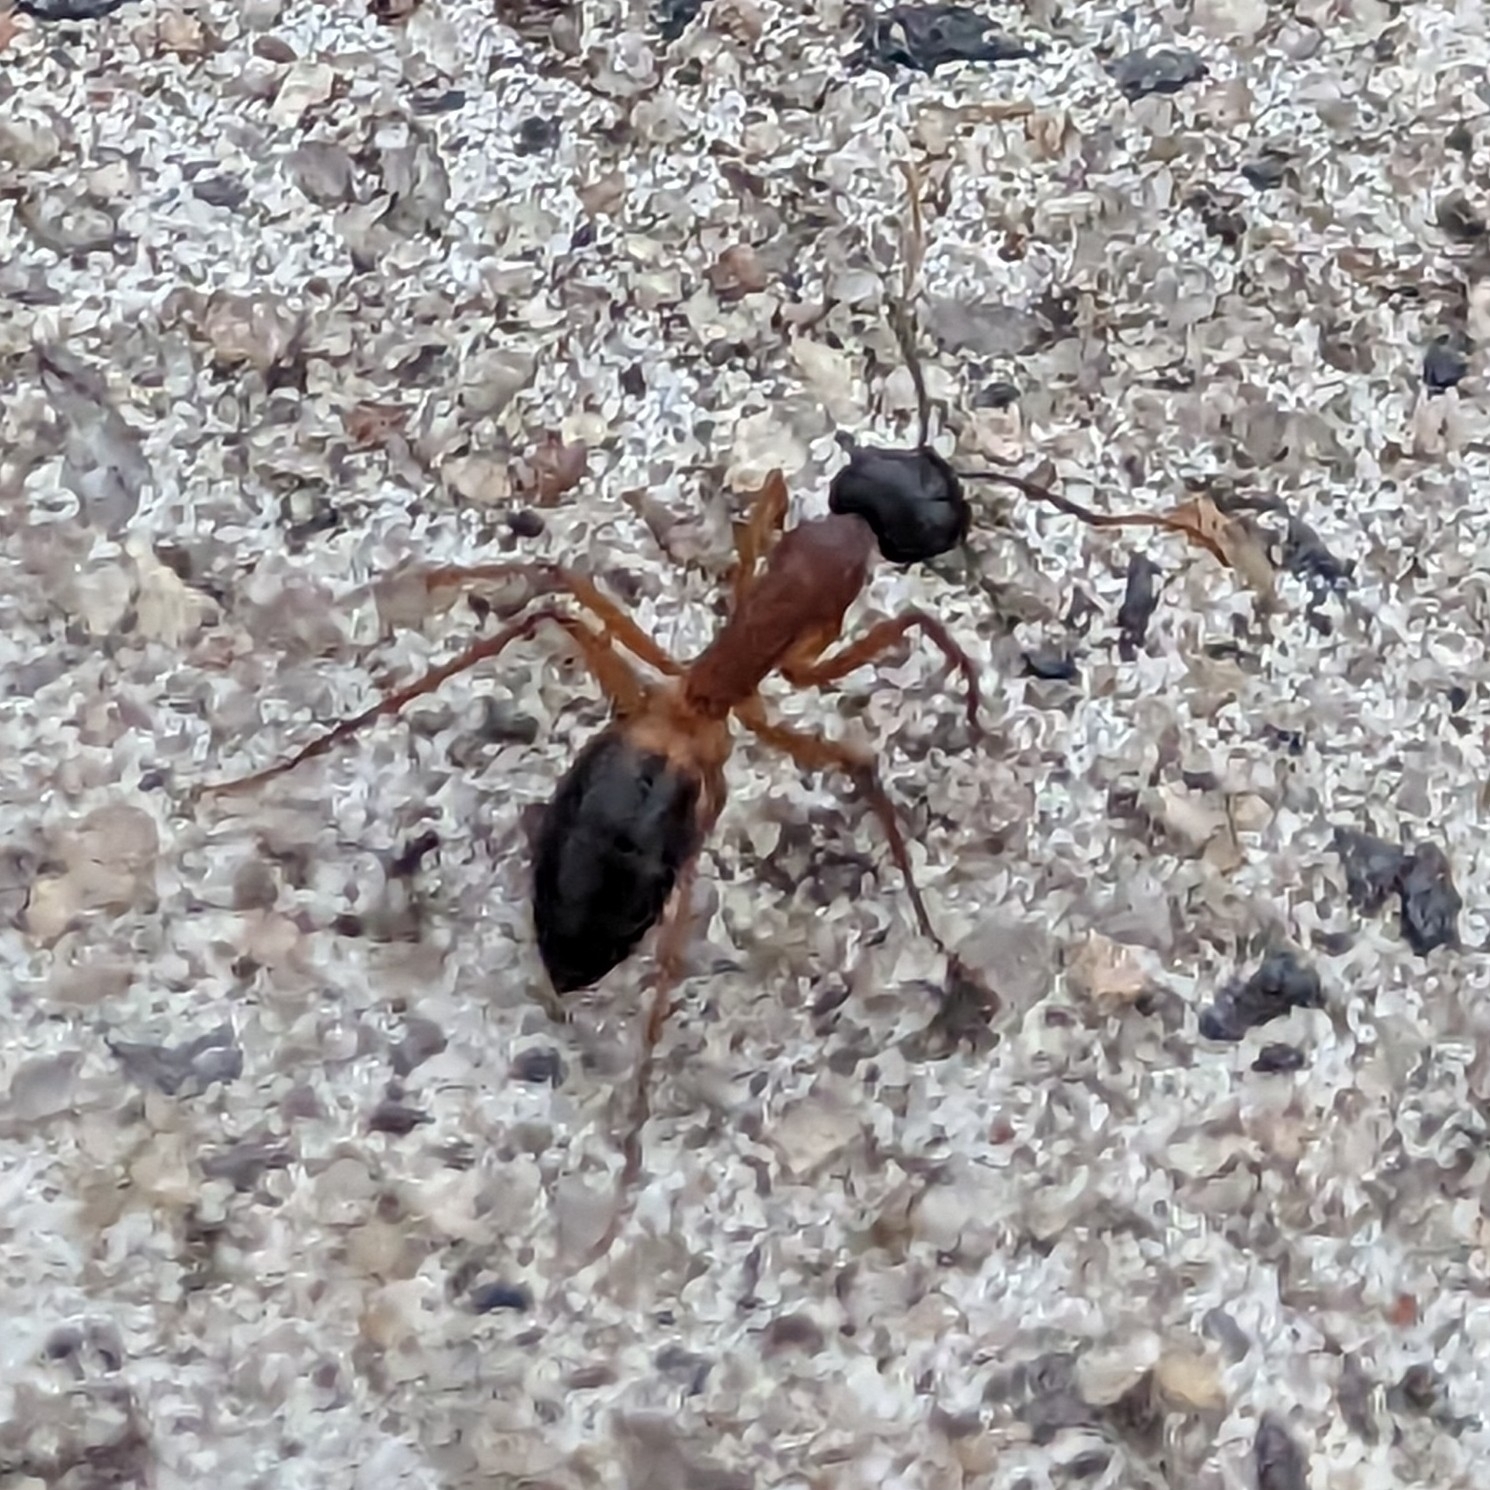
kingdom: Animalia
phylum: Arthropoda
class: Insecta
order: Hymenoptera
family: Formicidae
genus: Camponotus
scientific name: Camponotus consobrinus
